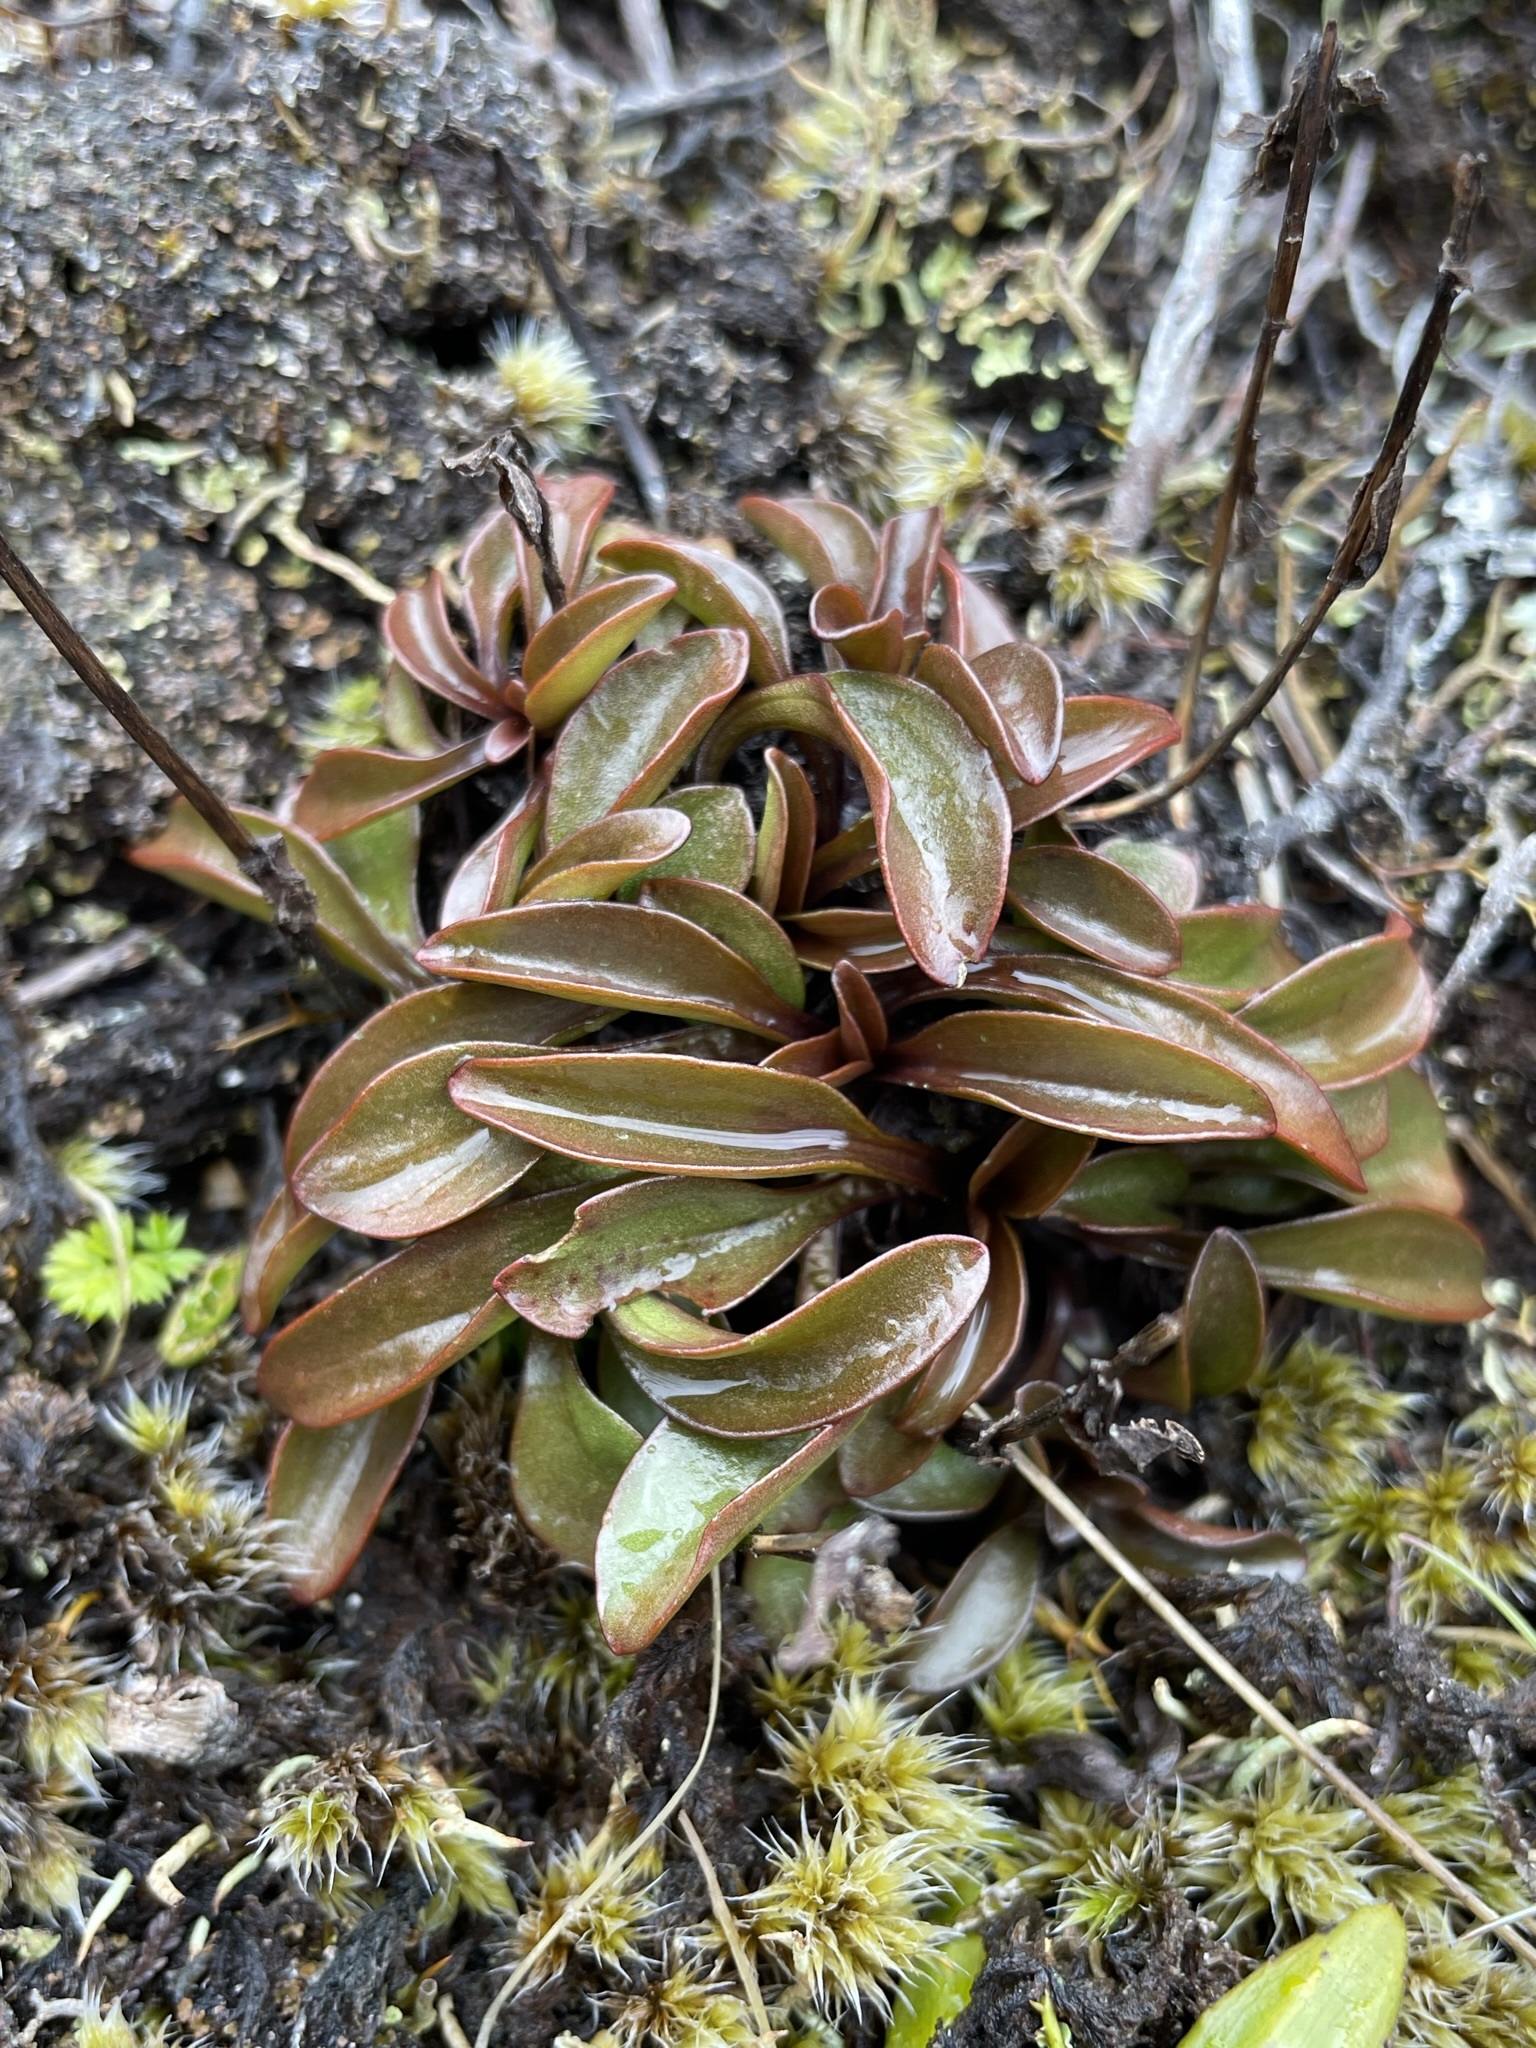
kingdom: Plantae
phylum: Tracheophyta
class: Magnoliopsida
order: Gentianales
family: Gentianaceae
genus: Gentianella
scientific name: Gentianella bellidifolia
